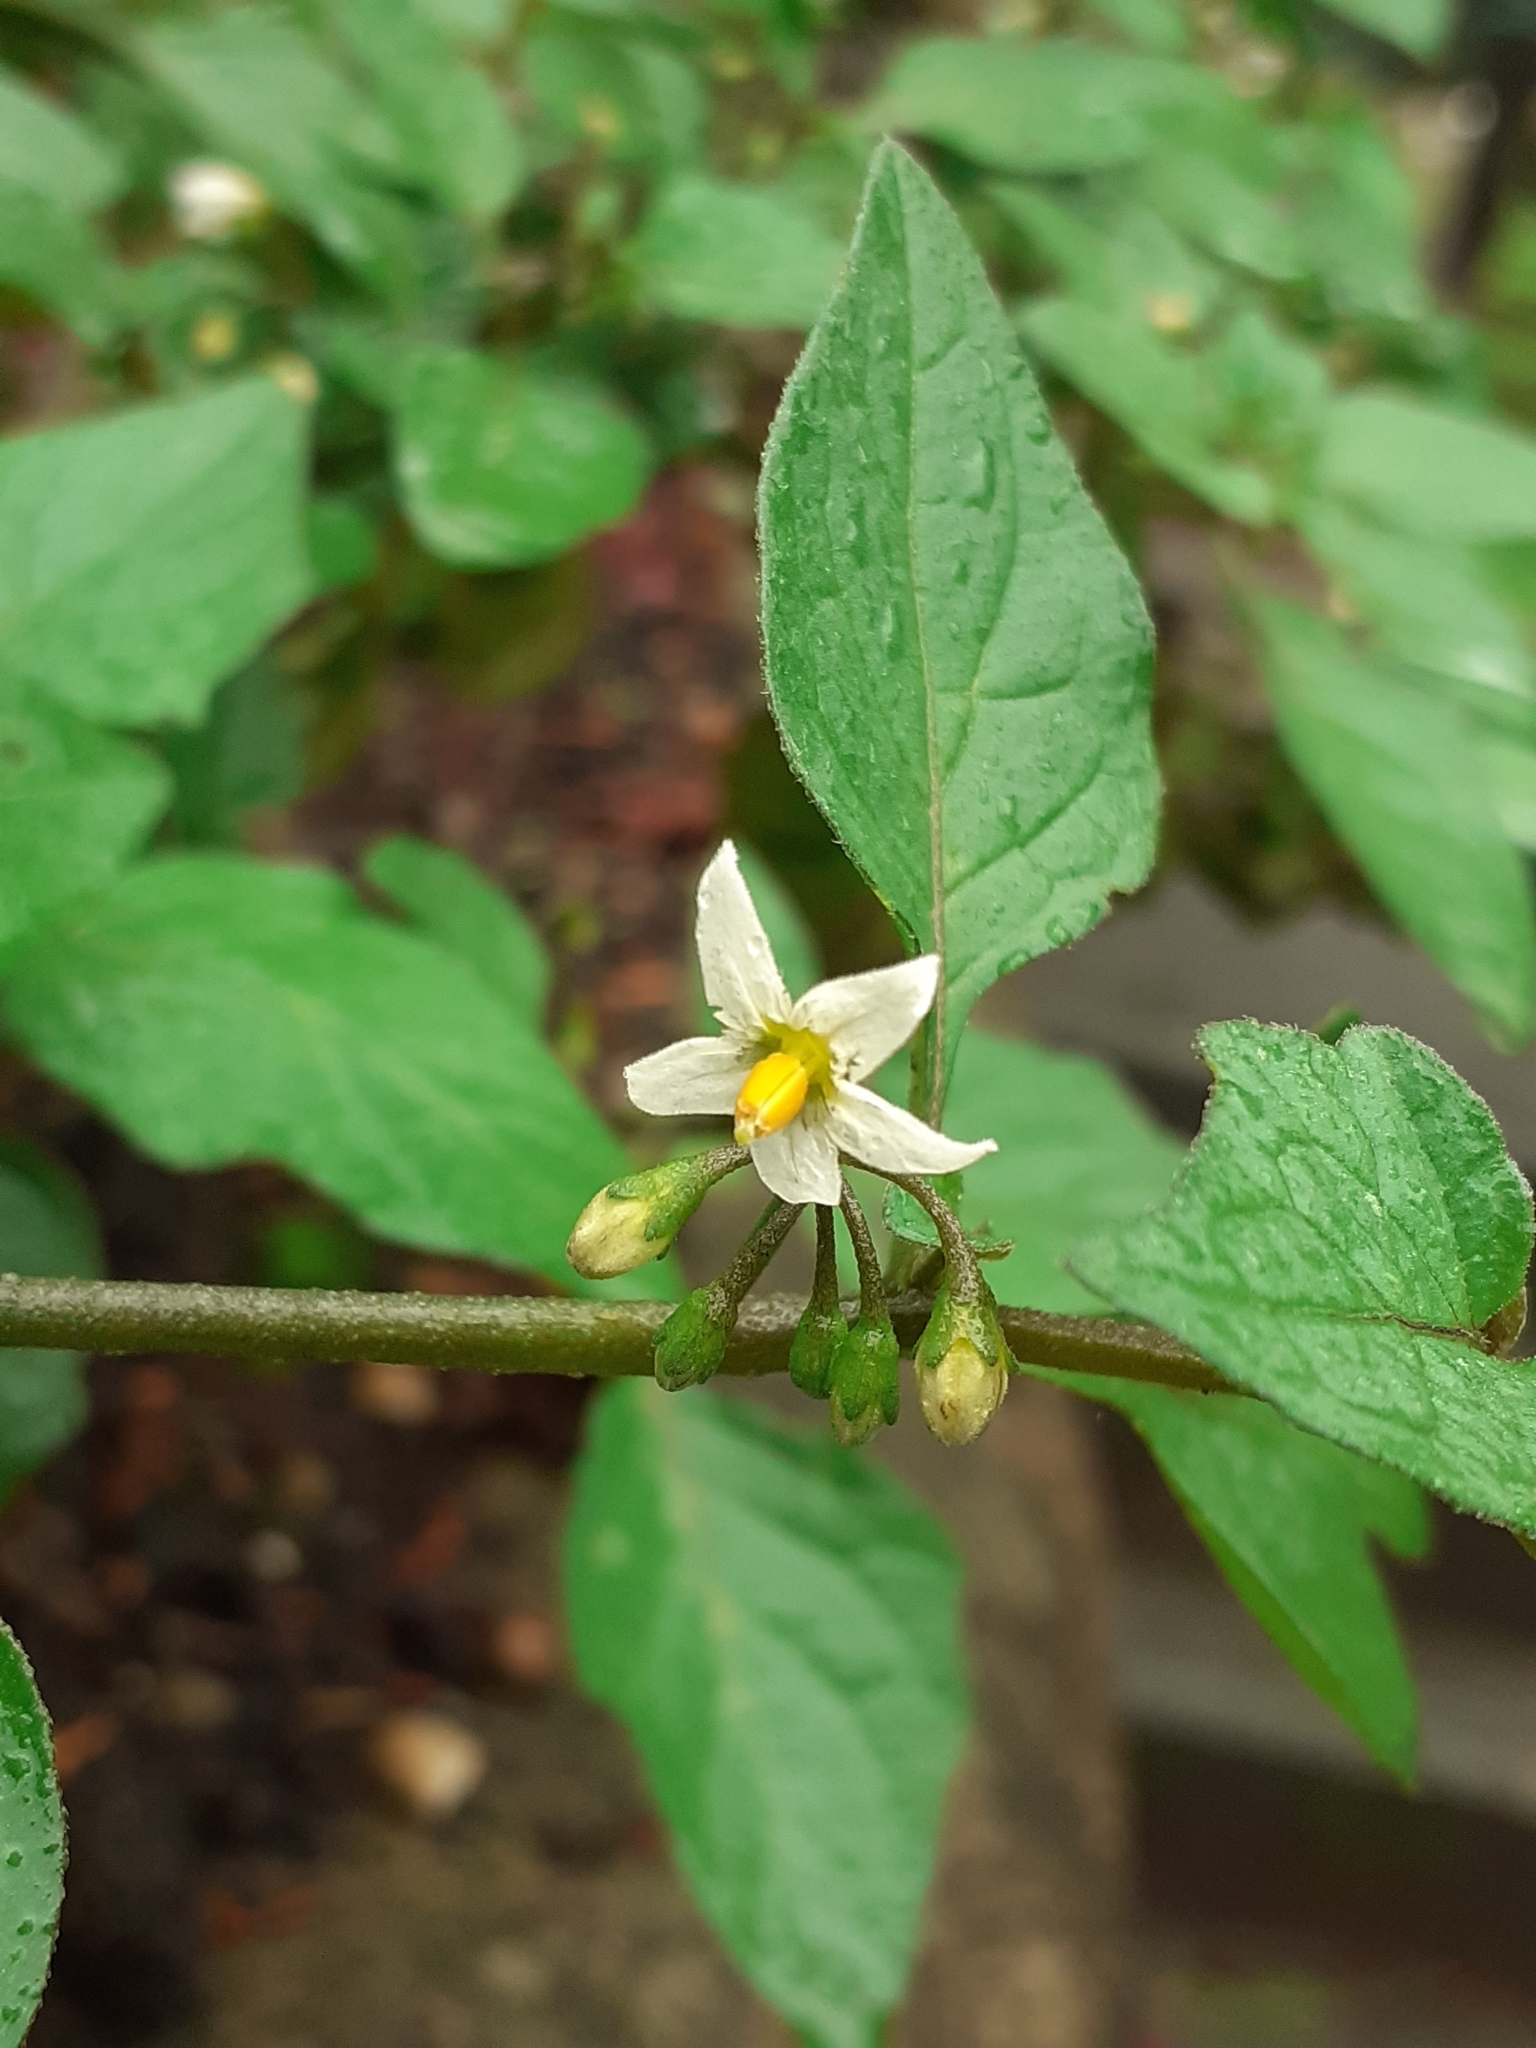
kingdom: Plantae
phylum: Tracheophyta
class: Magnoliopsida
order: Solanales
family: Solanaceae
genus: Solanum
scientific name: Solanum nigrum
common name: Black nightshade
